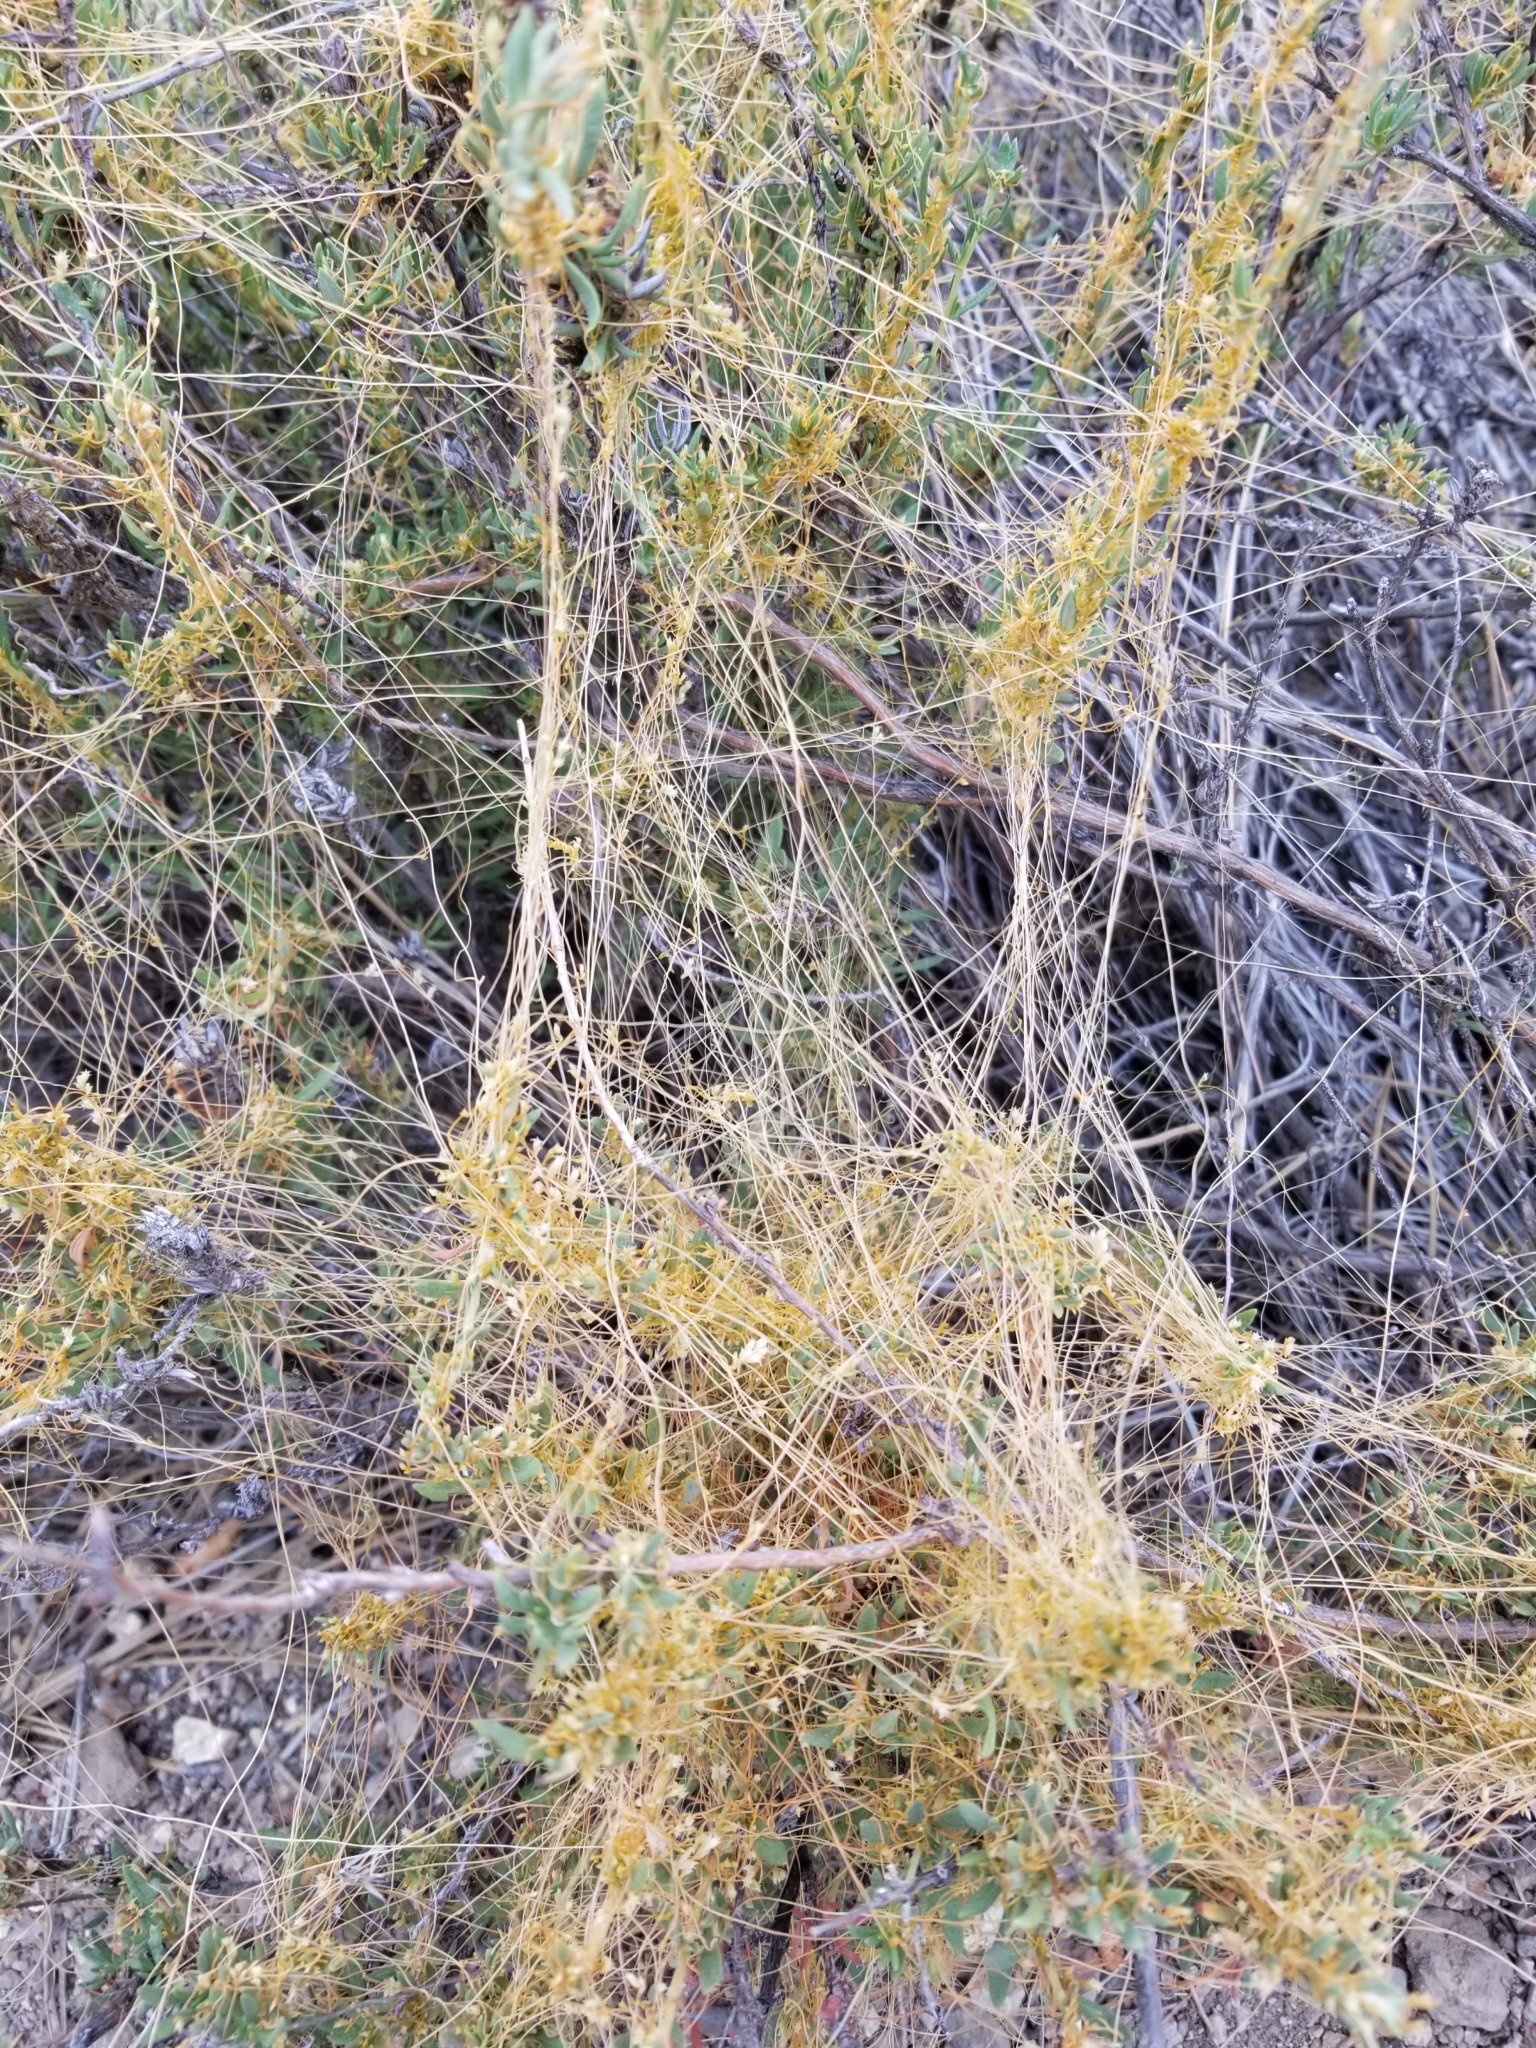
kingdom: Plantae
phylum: Tracheophyta
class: Magnoliopsida
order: Solanales
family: Convolvulaceae
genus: Cuscuta
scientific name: Cuscuta californica
